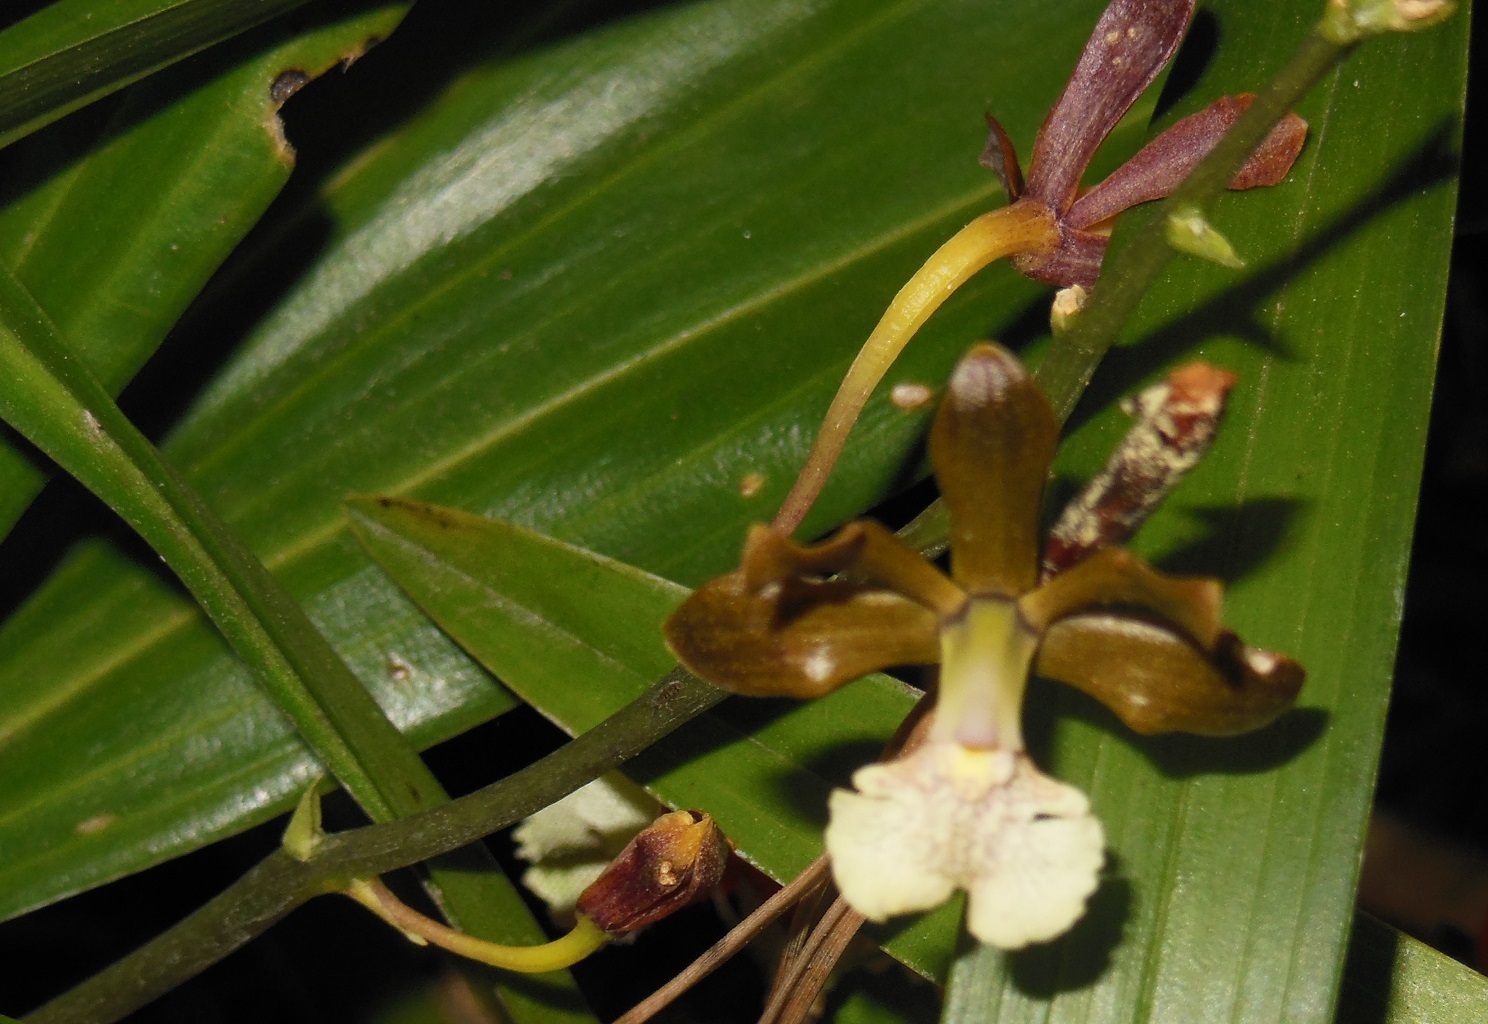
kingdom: Plantae
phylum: Tracheophyta
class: Liliopsida
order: Asparagales
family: Orchidaceae
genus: Prosthechea
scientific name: Prosthechea varicosa
